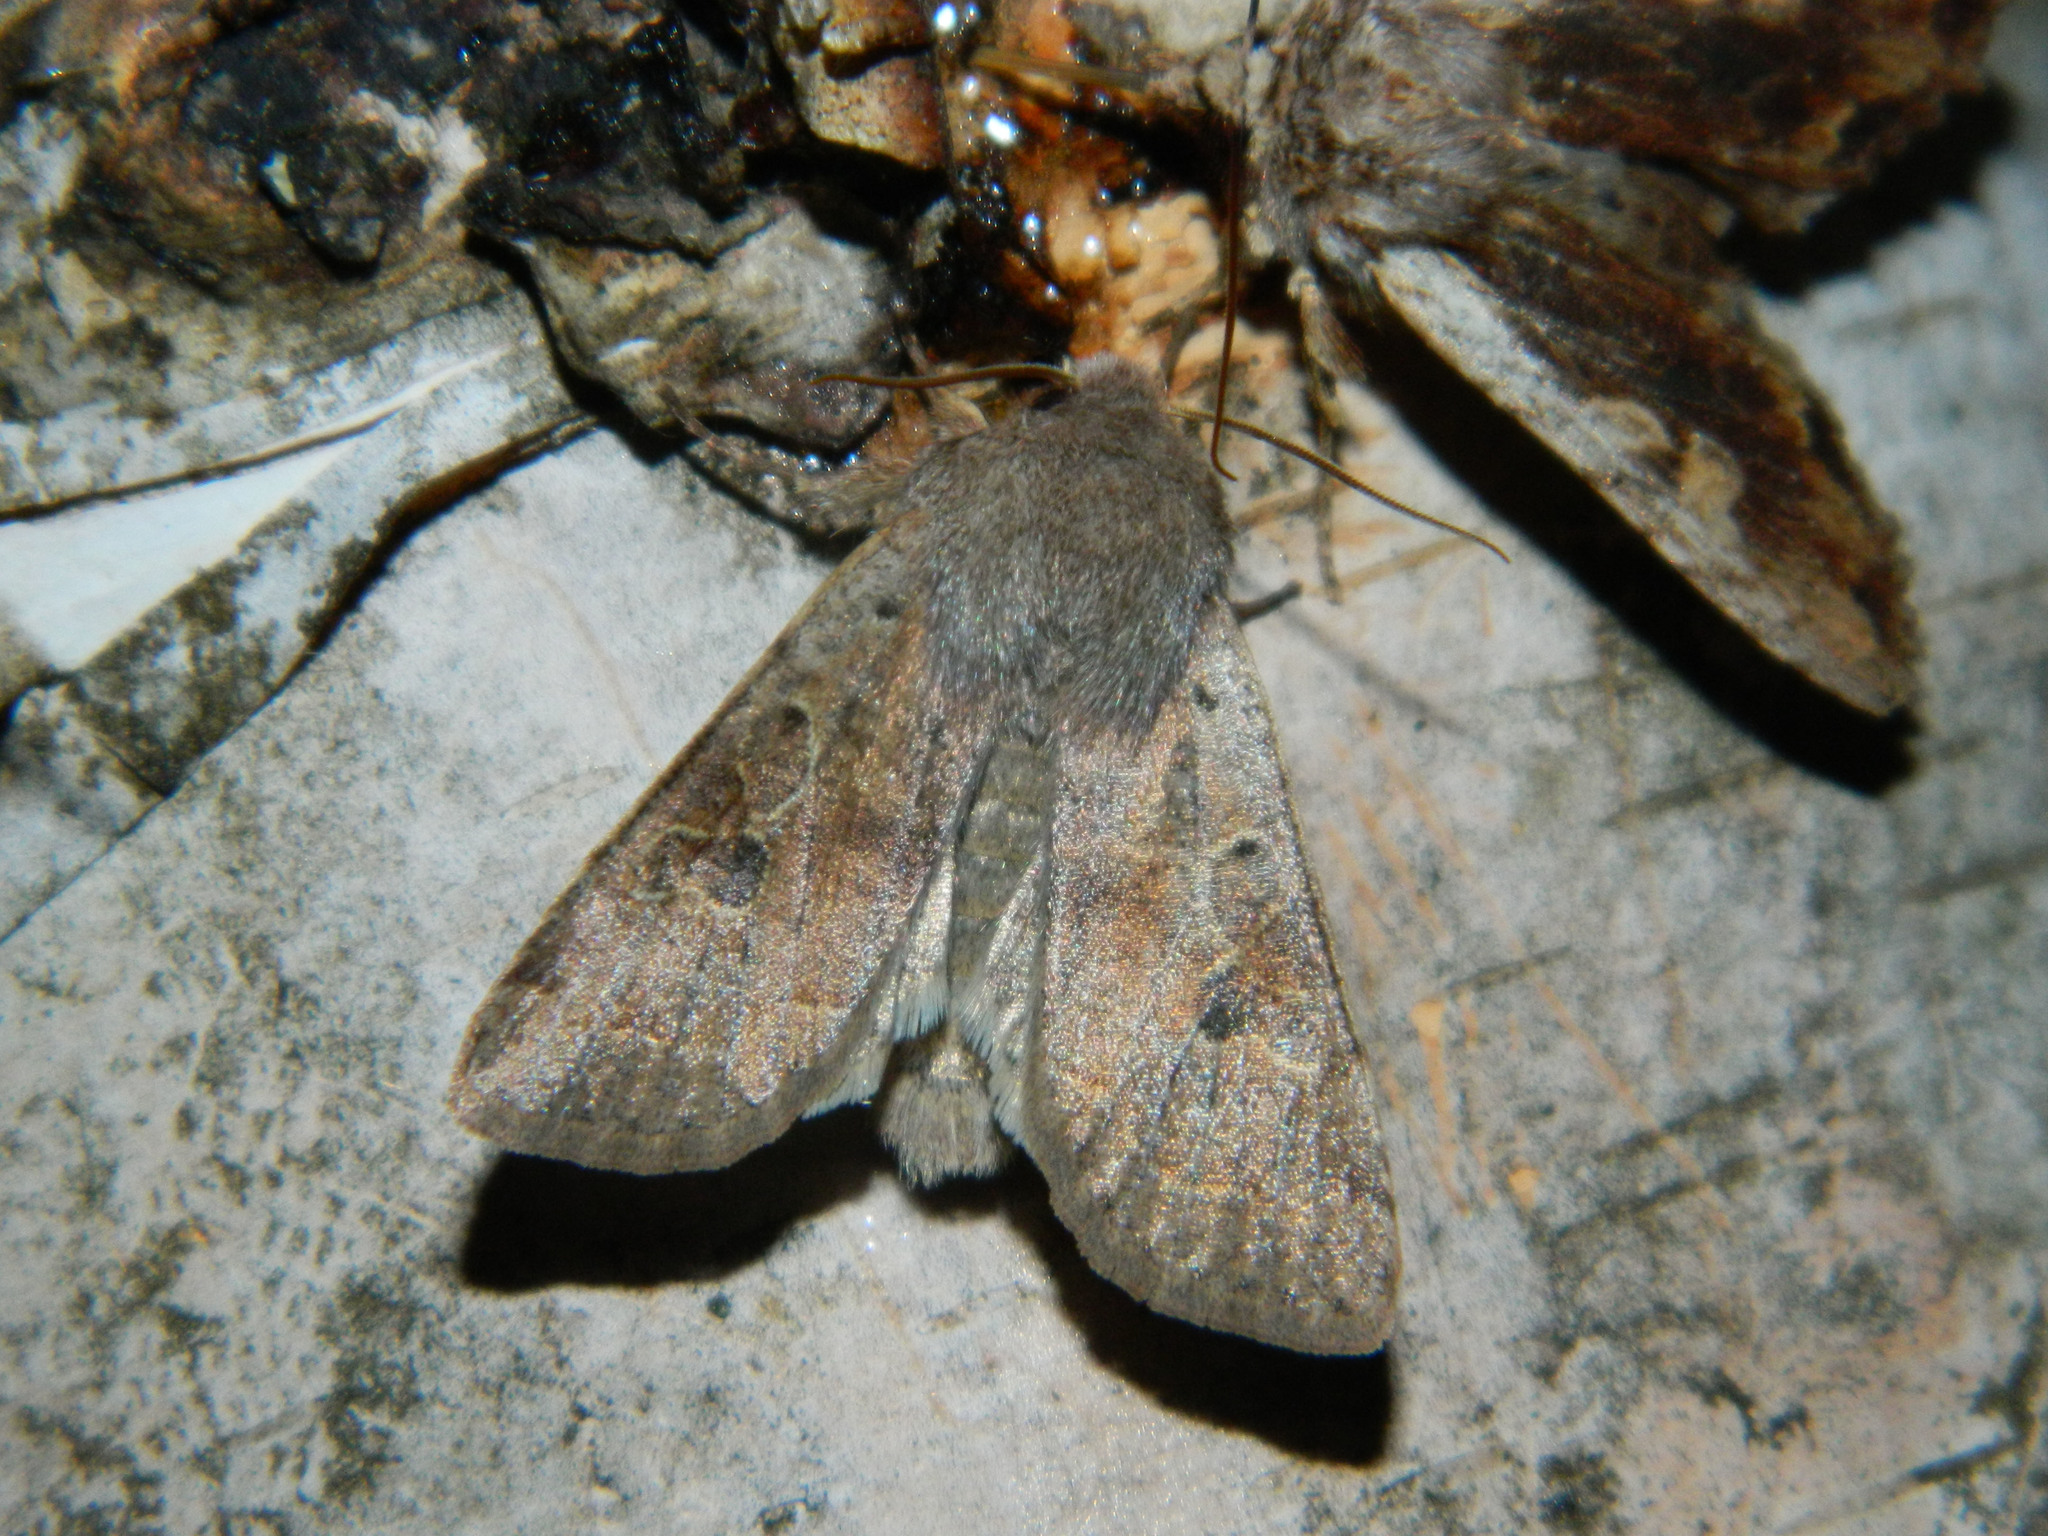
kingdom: Animalia
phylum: Arthropoda
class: Insecta
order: Lepidoptera
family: Noctuidae
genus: Orthosia
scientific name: Orthosia hibisci
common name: Green fruitworm
